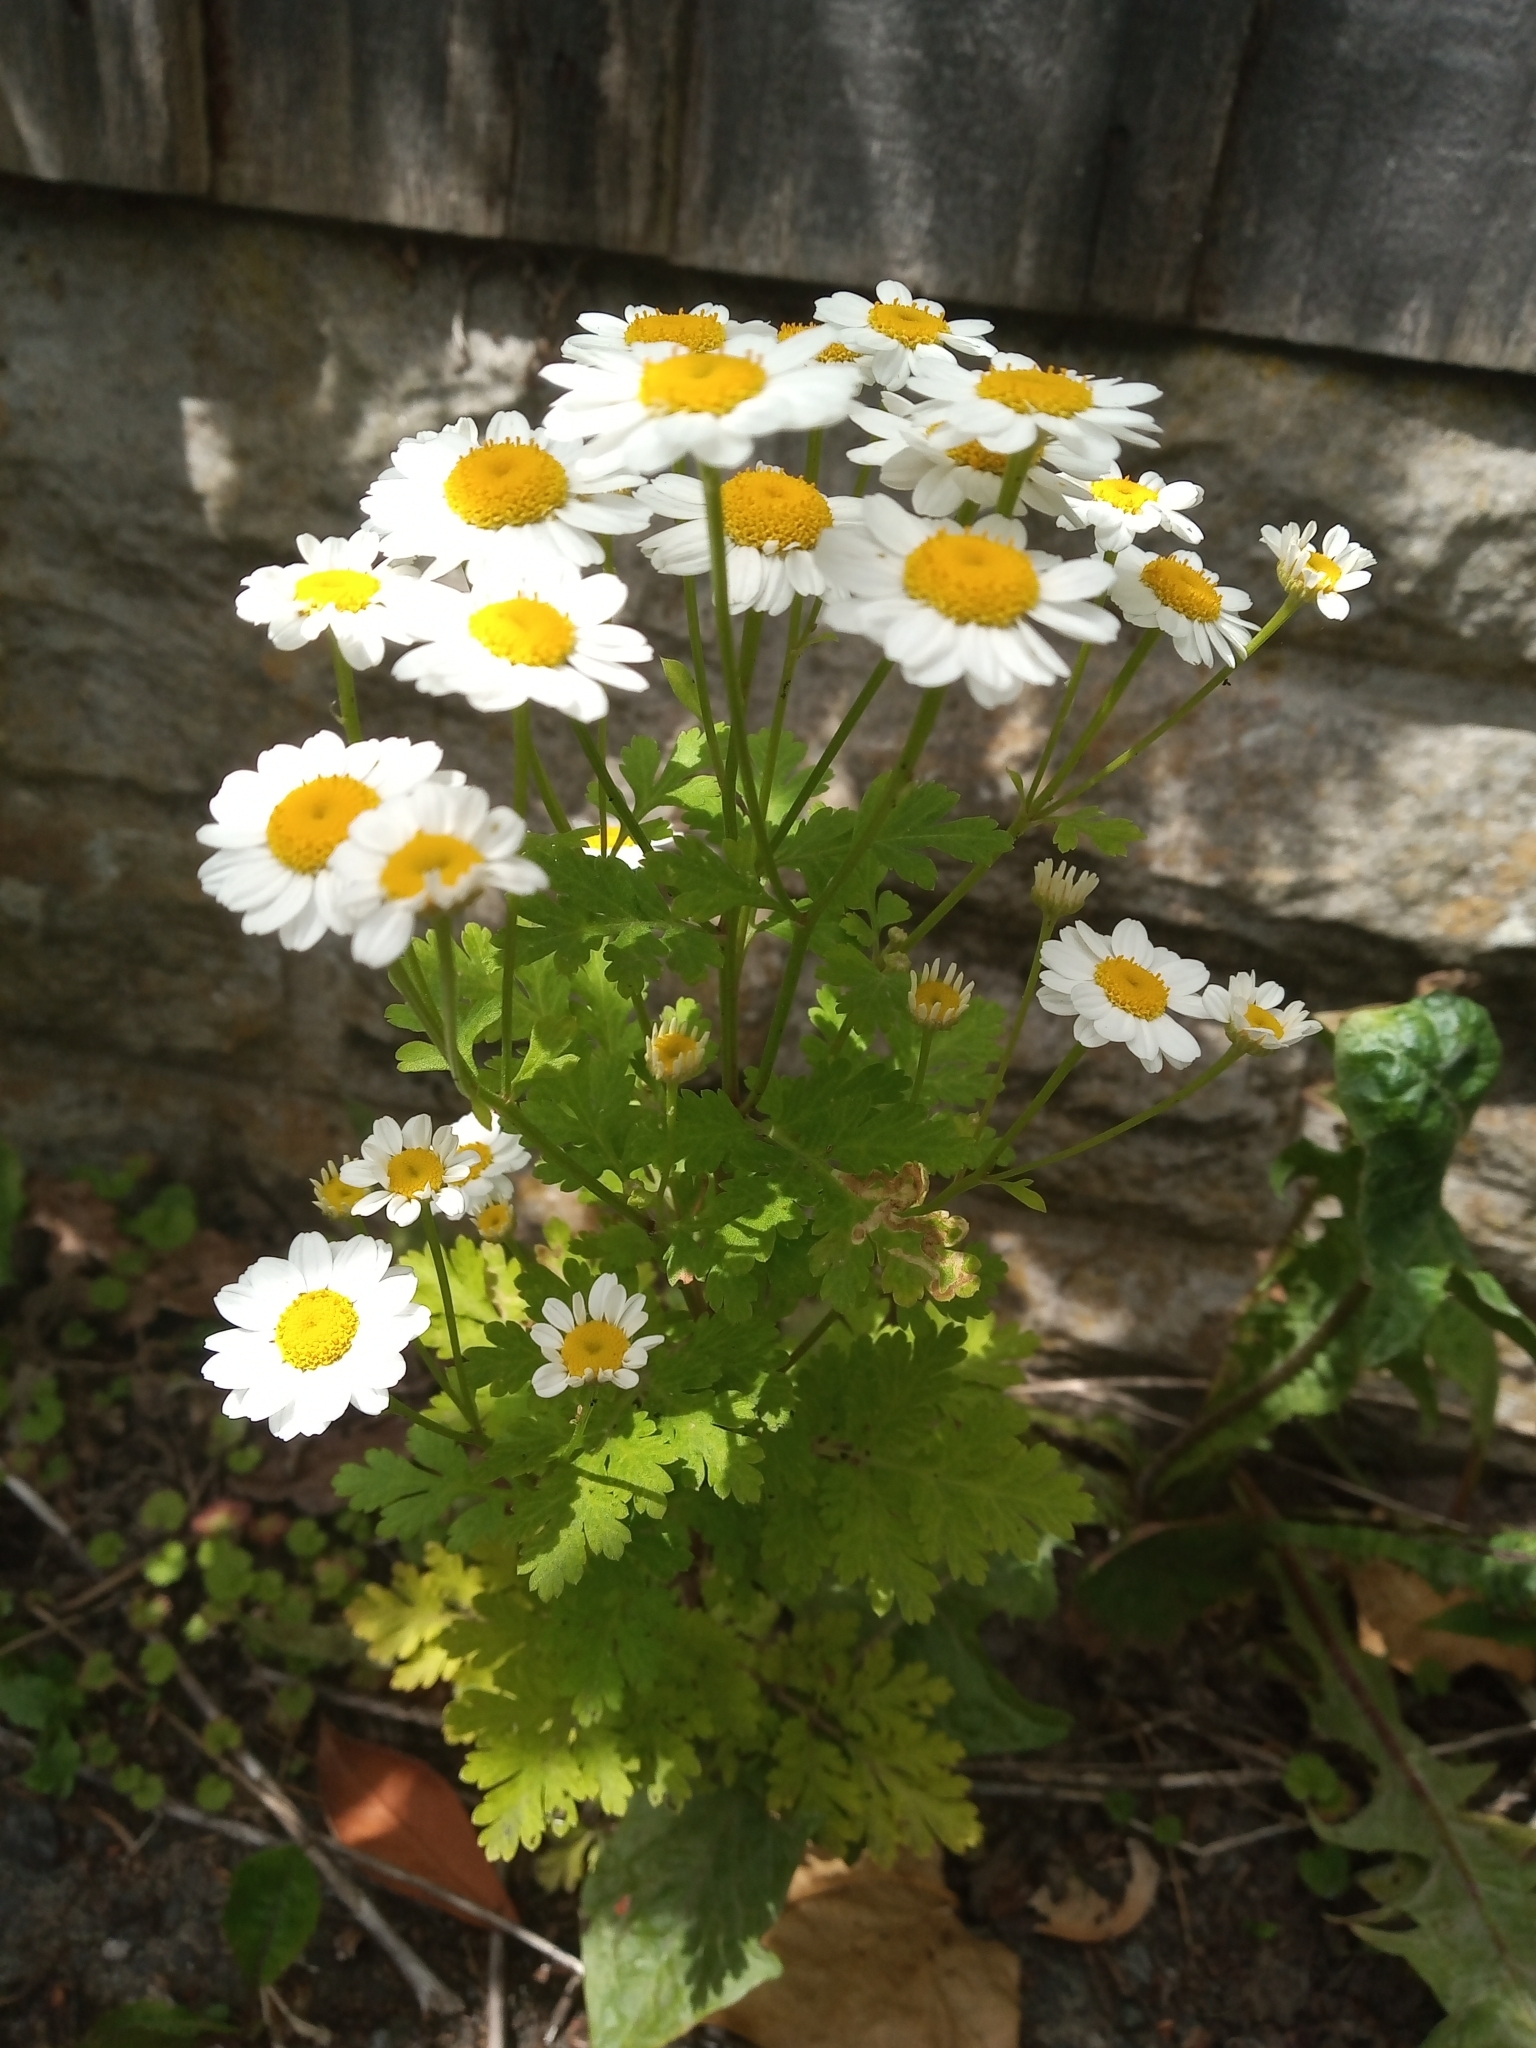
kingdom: Plantae
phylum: Tracheophyta
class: Magnoliopsida
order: Asterales
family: Asteraceae
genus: Tanacetum
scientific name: Tanacetum parthenium
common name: Feverfew
